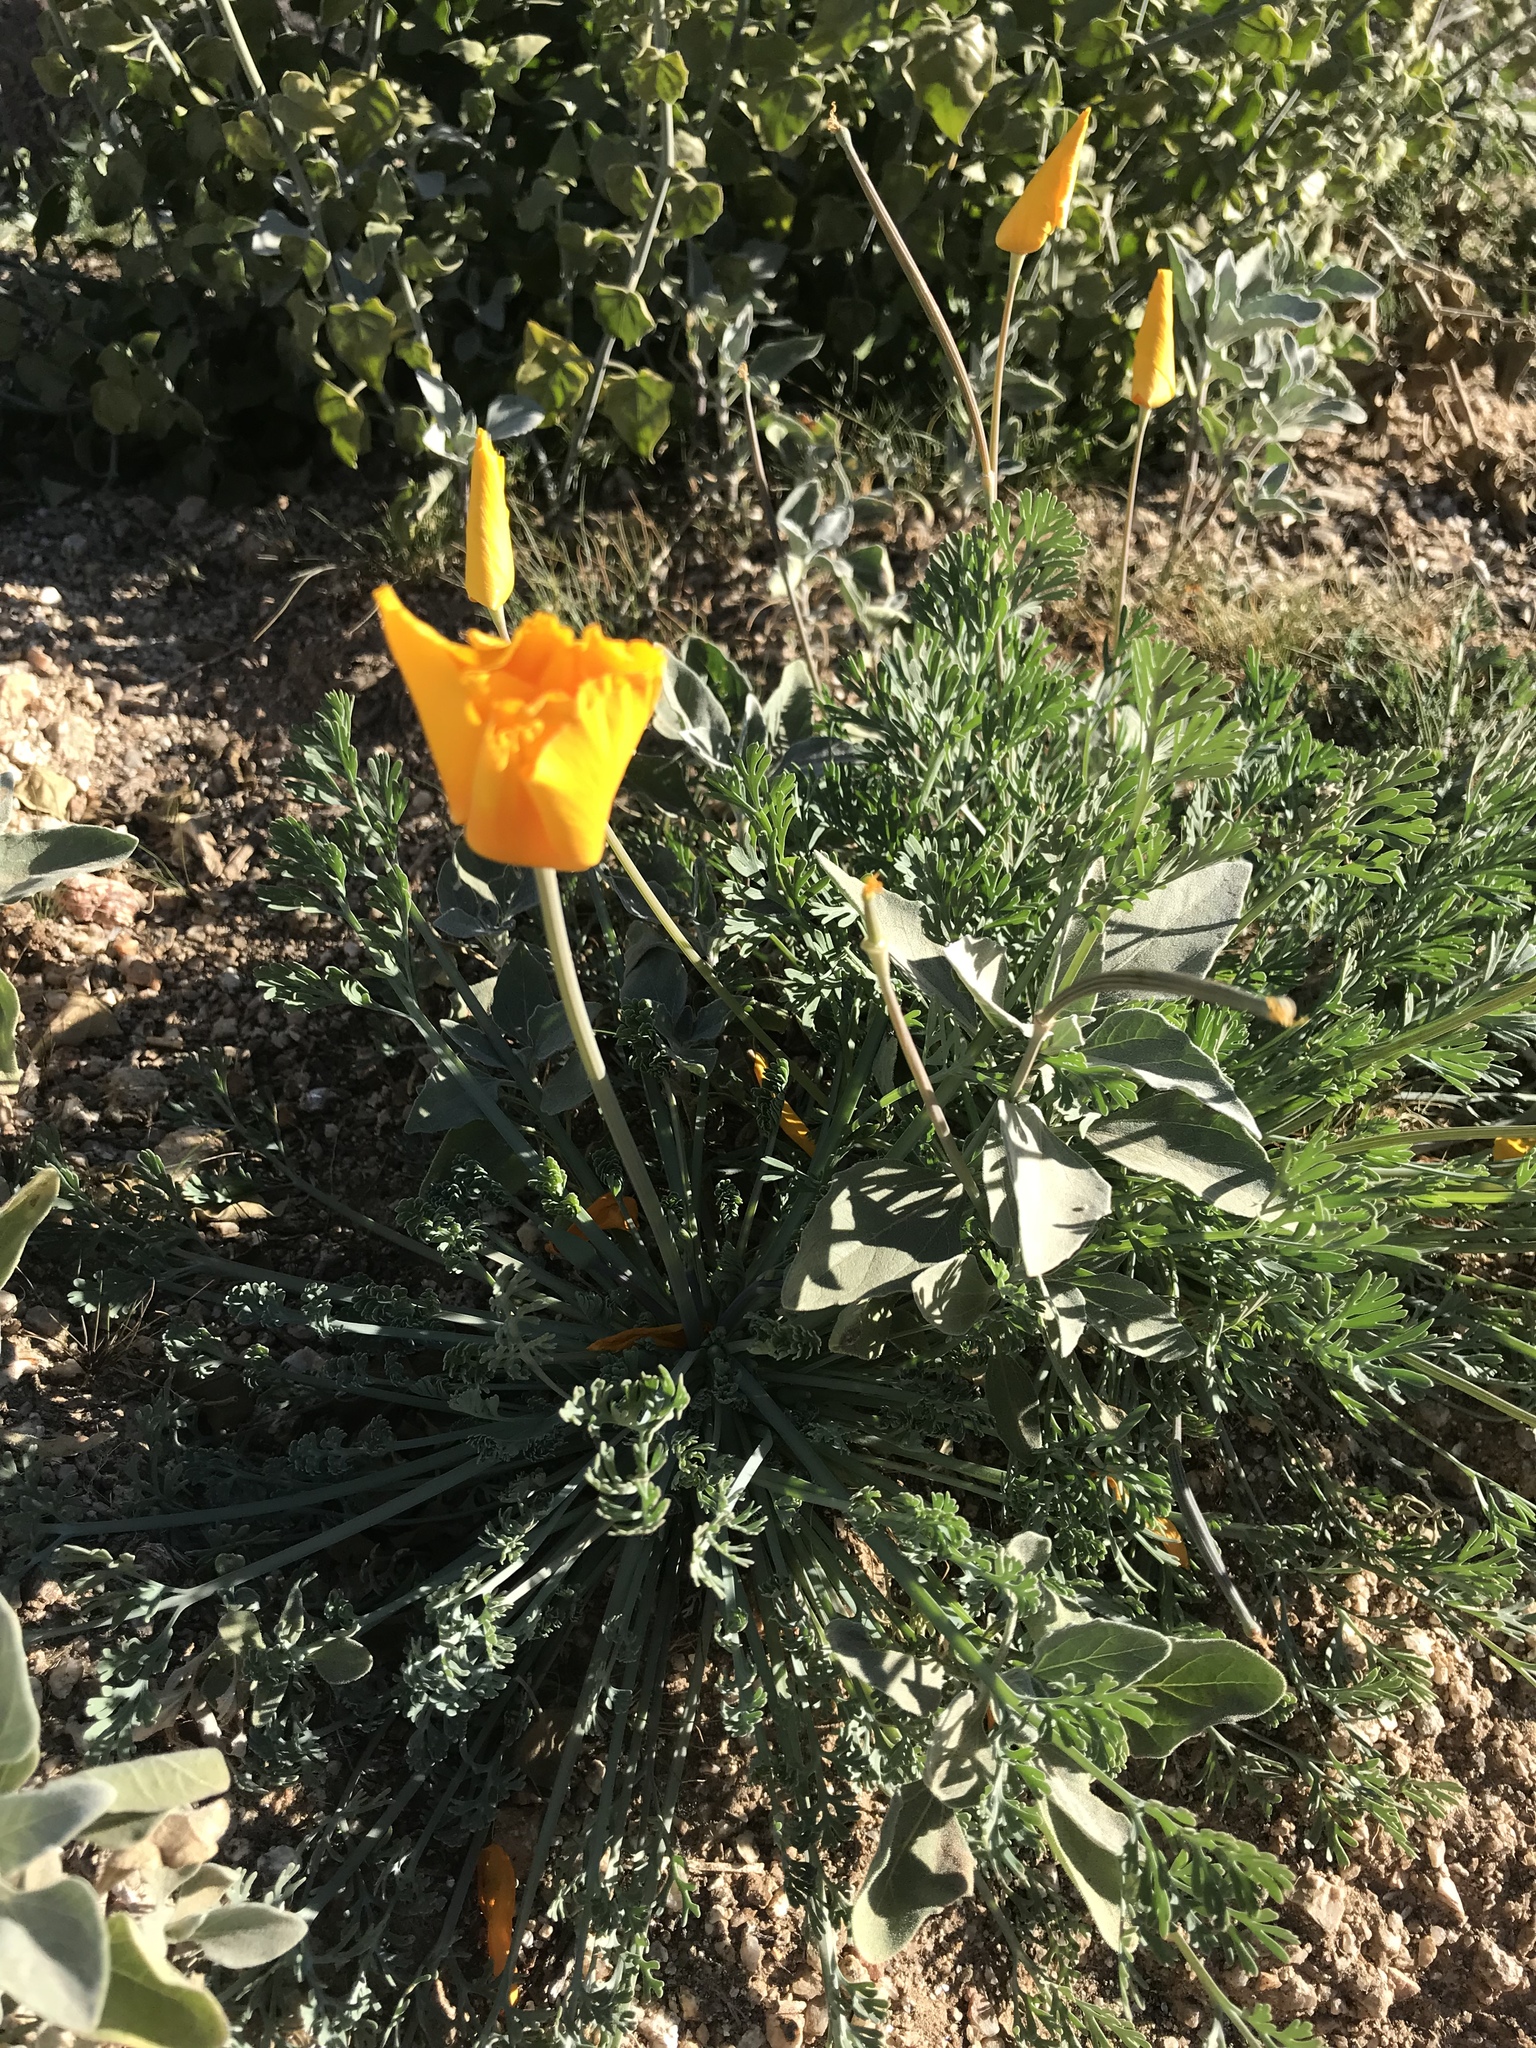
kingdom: Plantae
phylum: Tracheophyta
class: Magnoliopsida
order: Ranunculales
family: Papaveraceae
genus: Eschscholzia
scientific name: Eschscholzia californica
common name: California poppy
